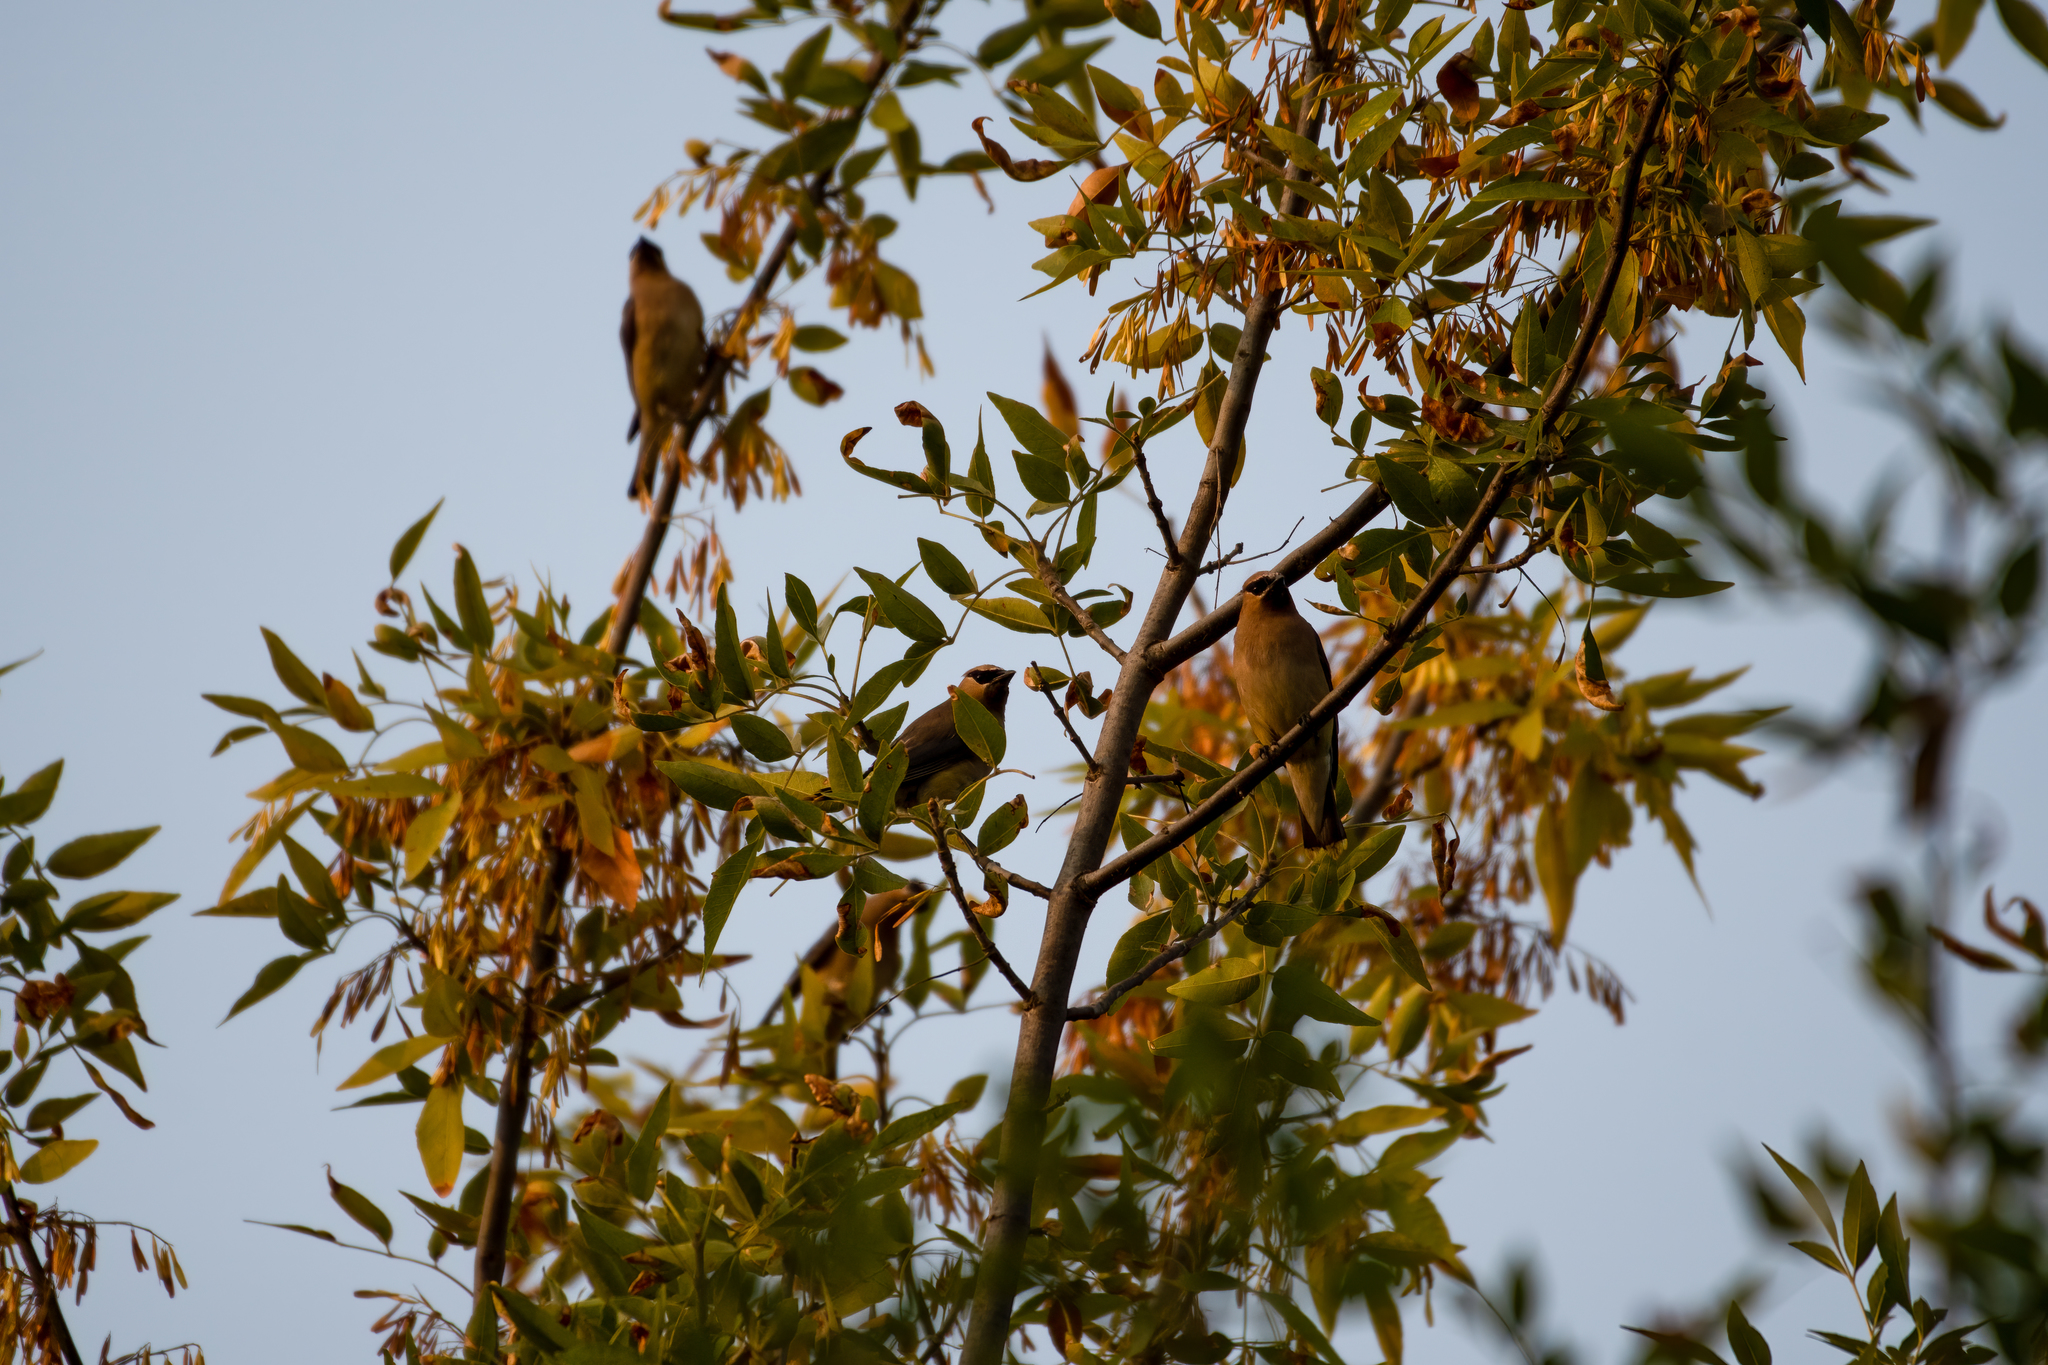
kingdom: Animalia
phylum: Chordata
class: Aves
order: Passeriformes
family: Bombycillidae
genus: Bombycilla
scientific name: Bombycilla cedrorum
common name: Cedar waxwing
